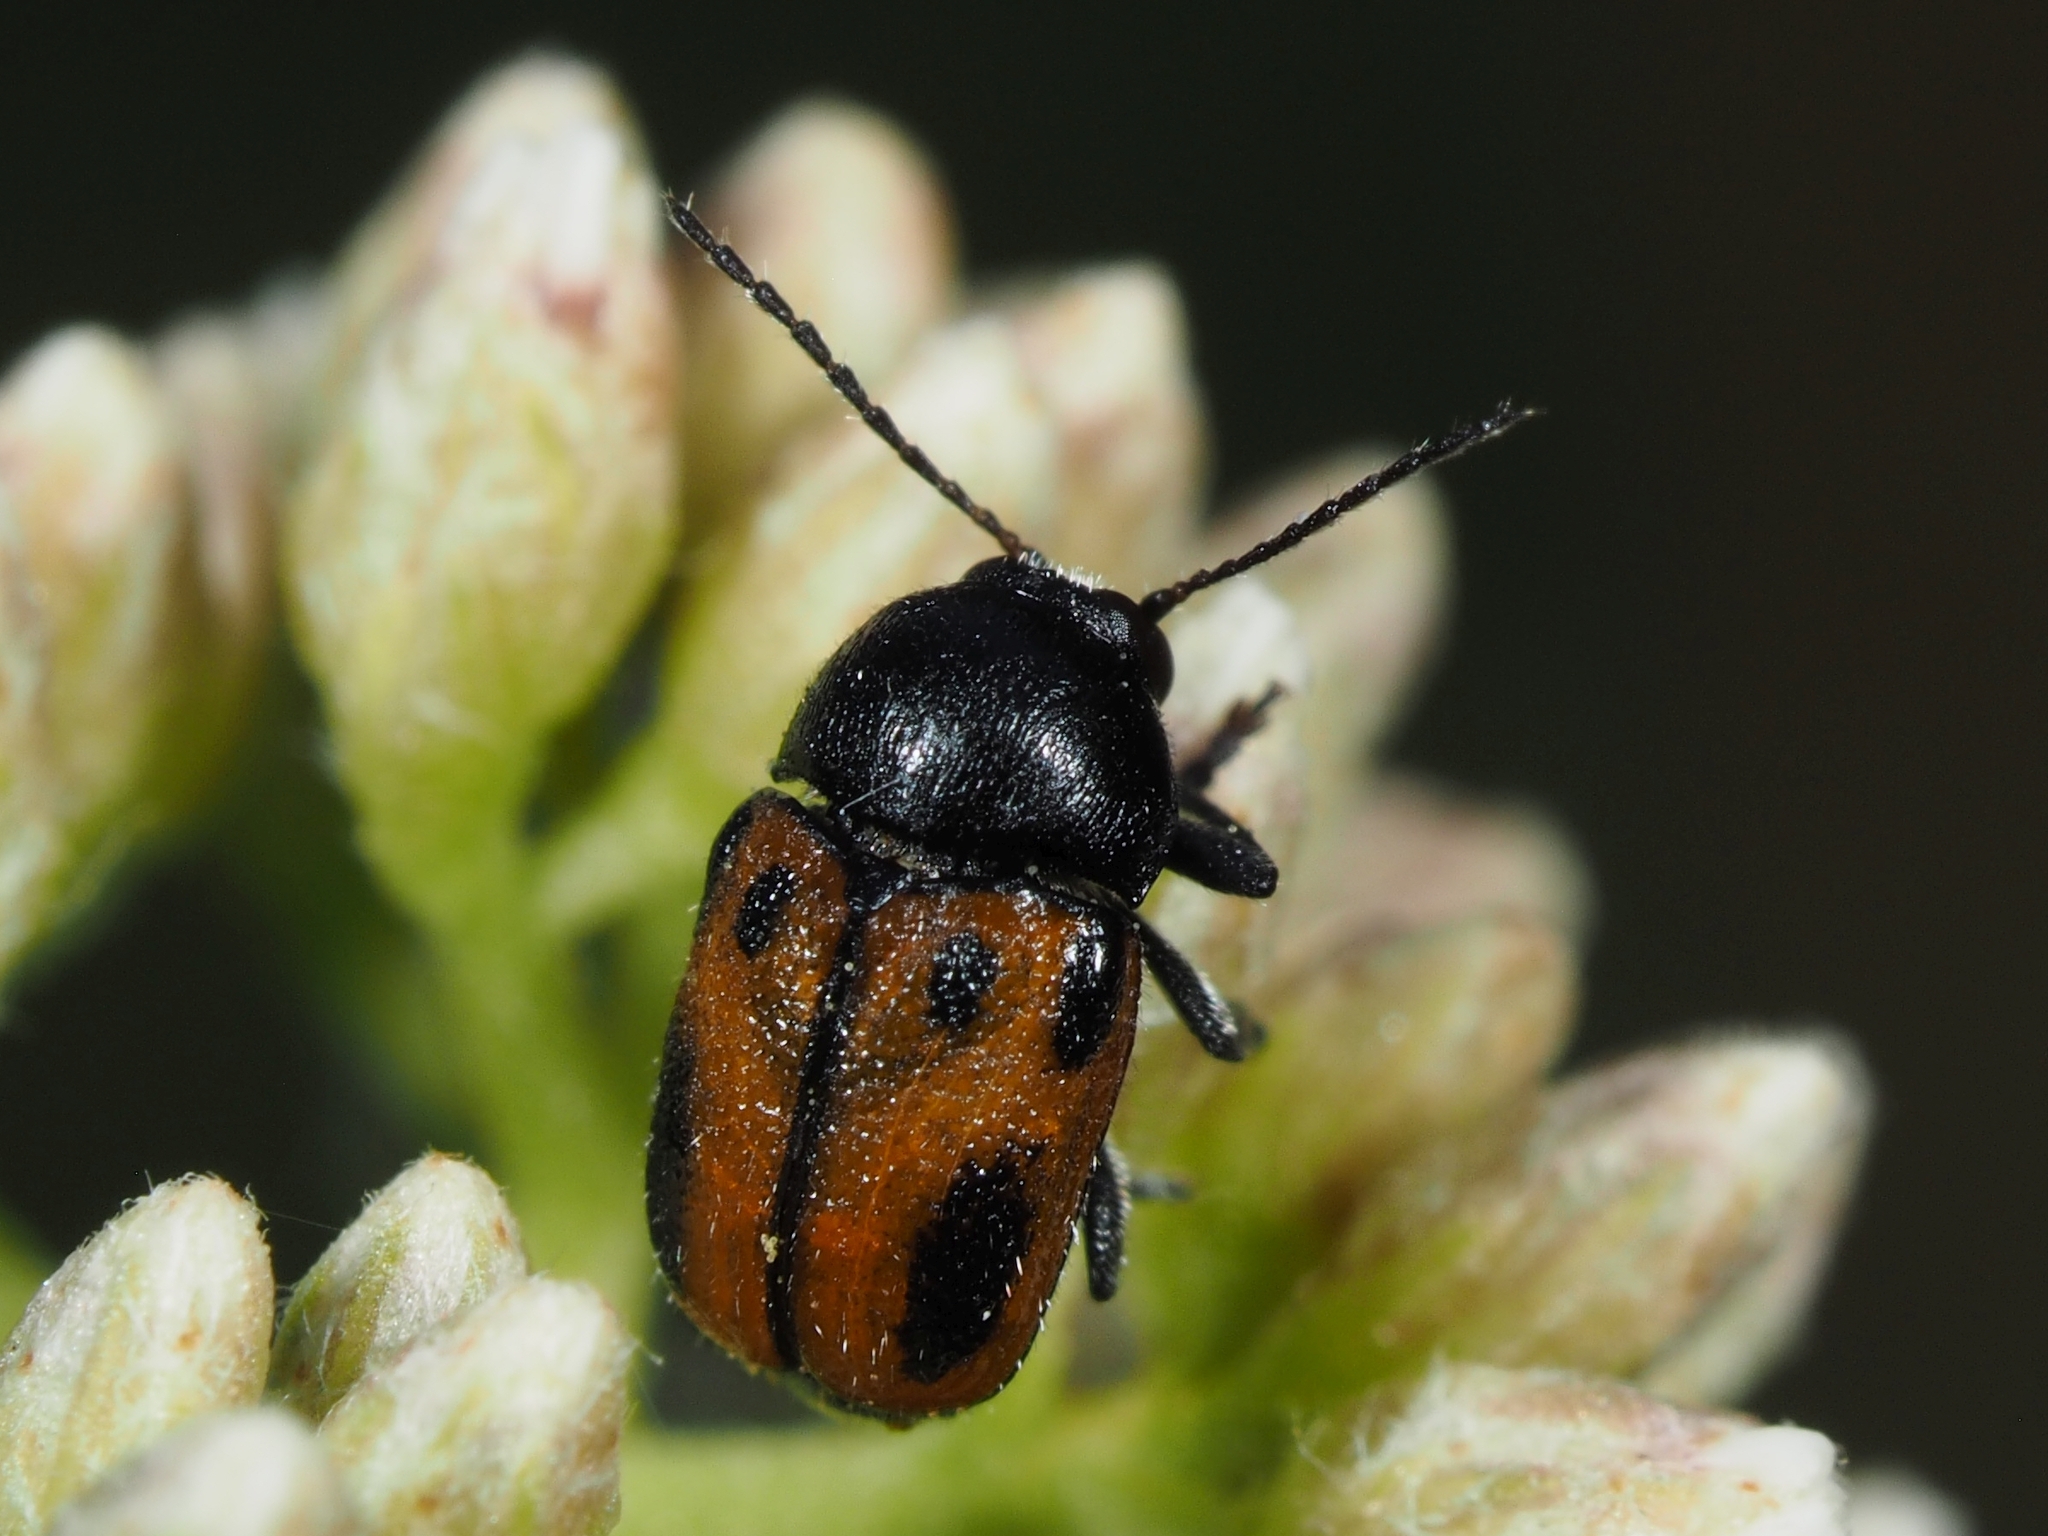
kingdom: Animalia
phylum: Arthropoda
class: Insecta
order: Coleoptera
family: Chrysomelidae
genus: Cryptocephalus
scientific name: Cryptocephalus rugicollis
